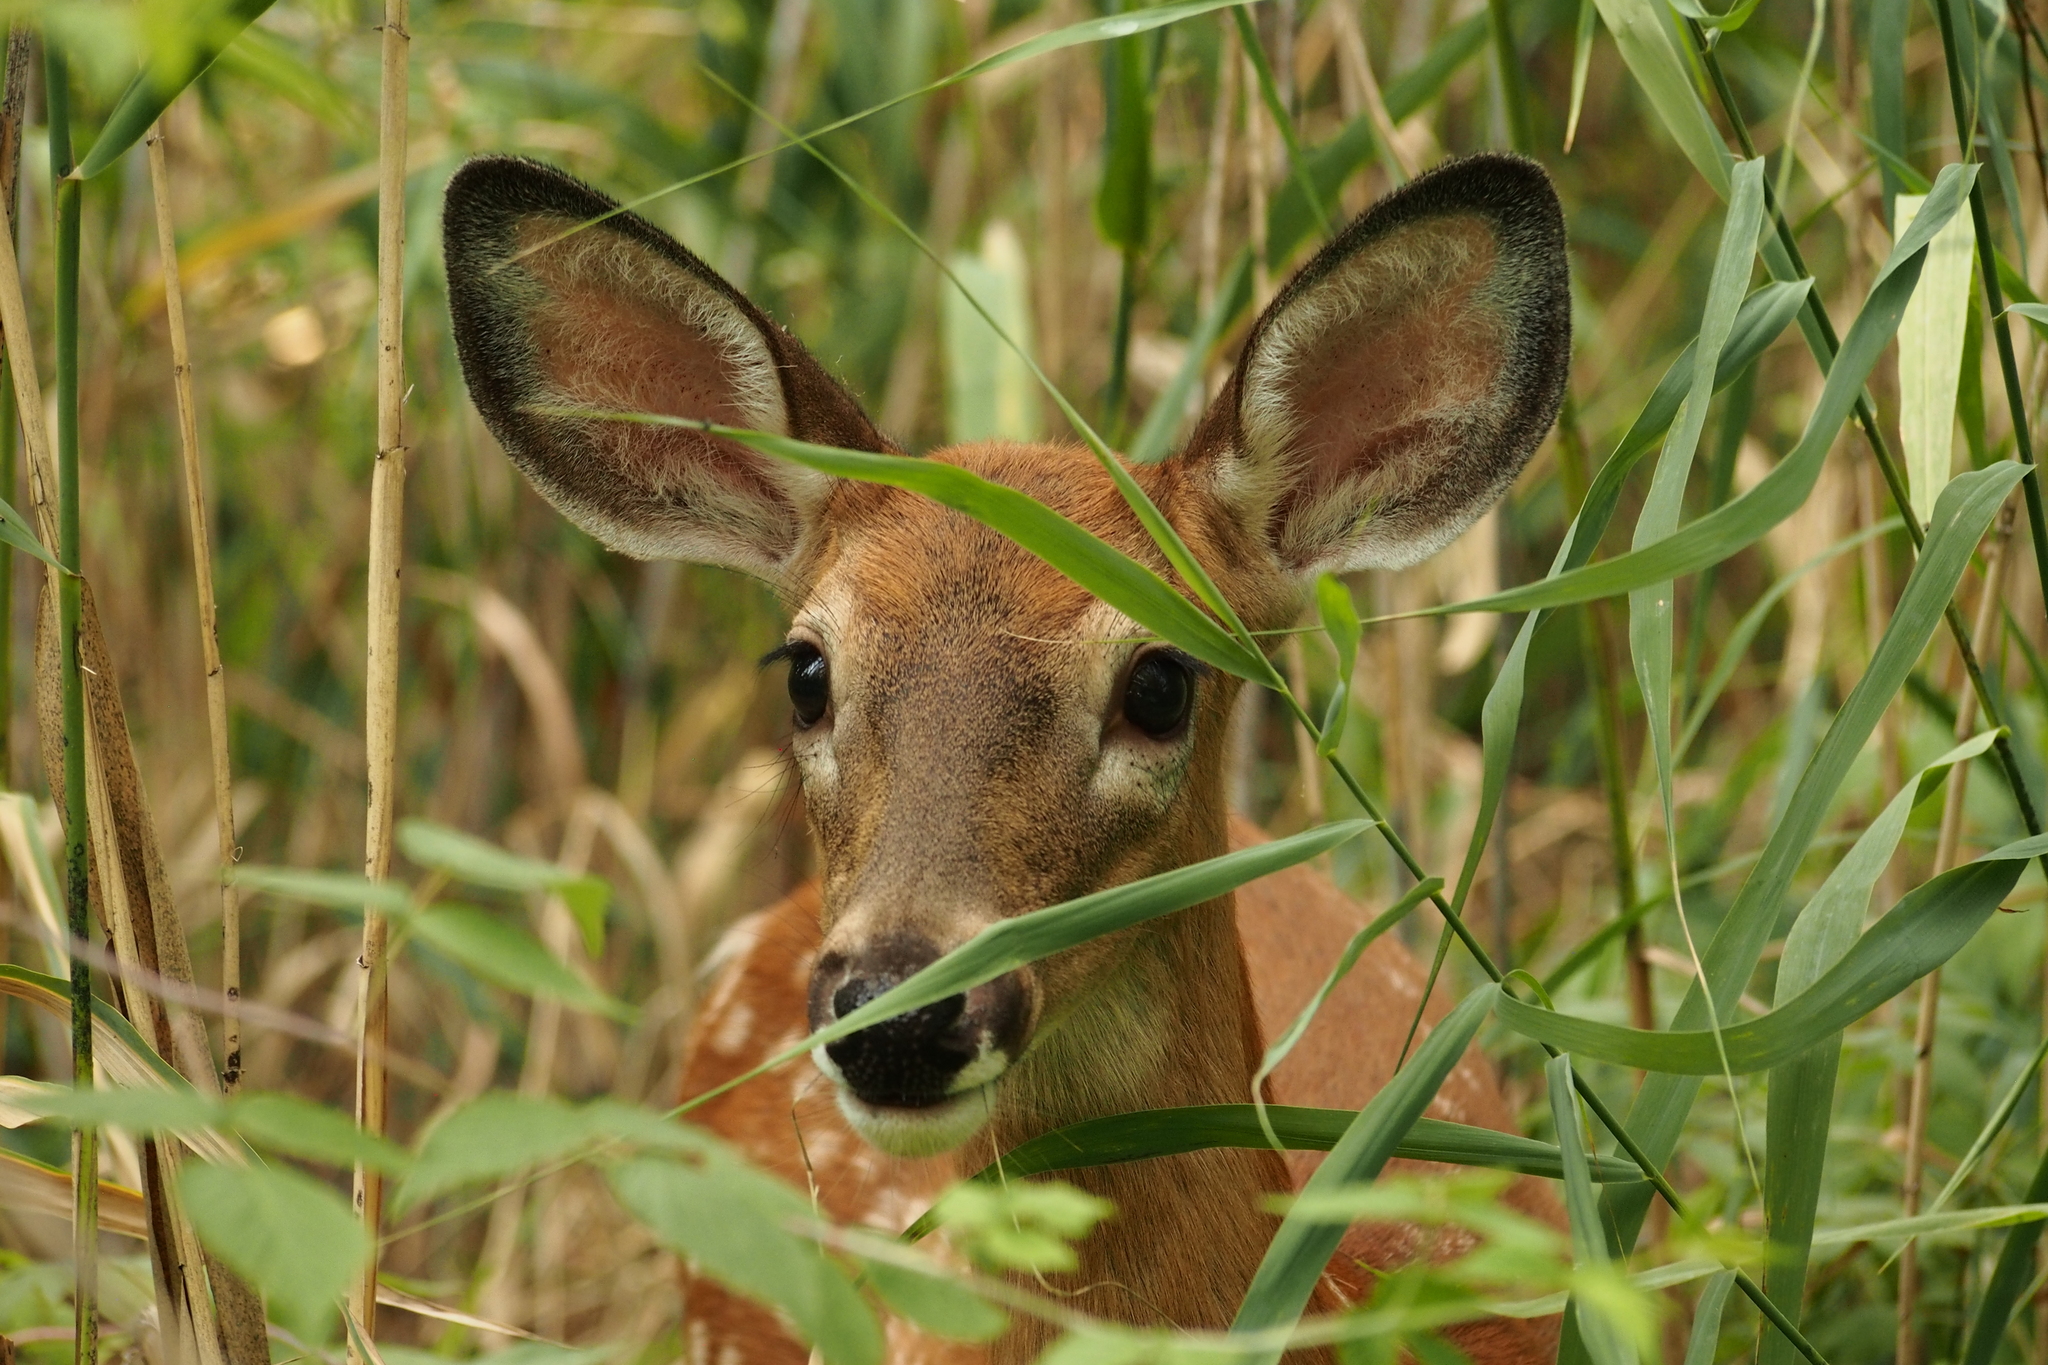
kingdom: Animalia
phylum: Chordata
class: Mammalia
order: Artiodactyla
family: Cervidae
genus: Odocoileus
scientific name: Odocoileus virginianus
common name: White-tailed deer
